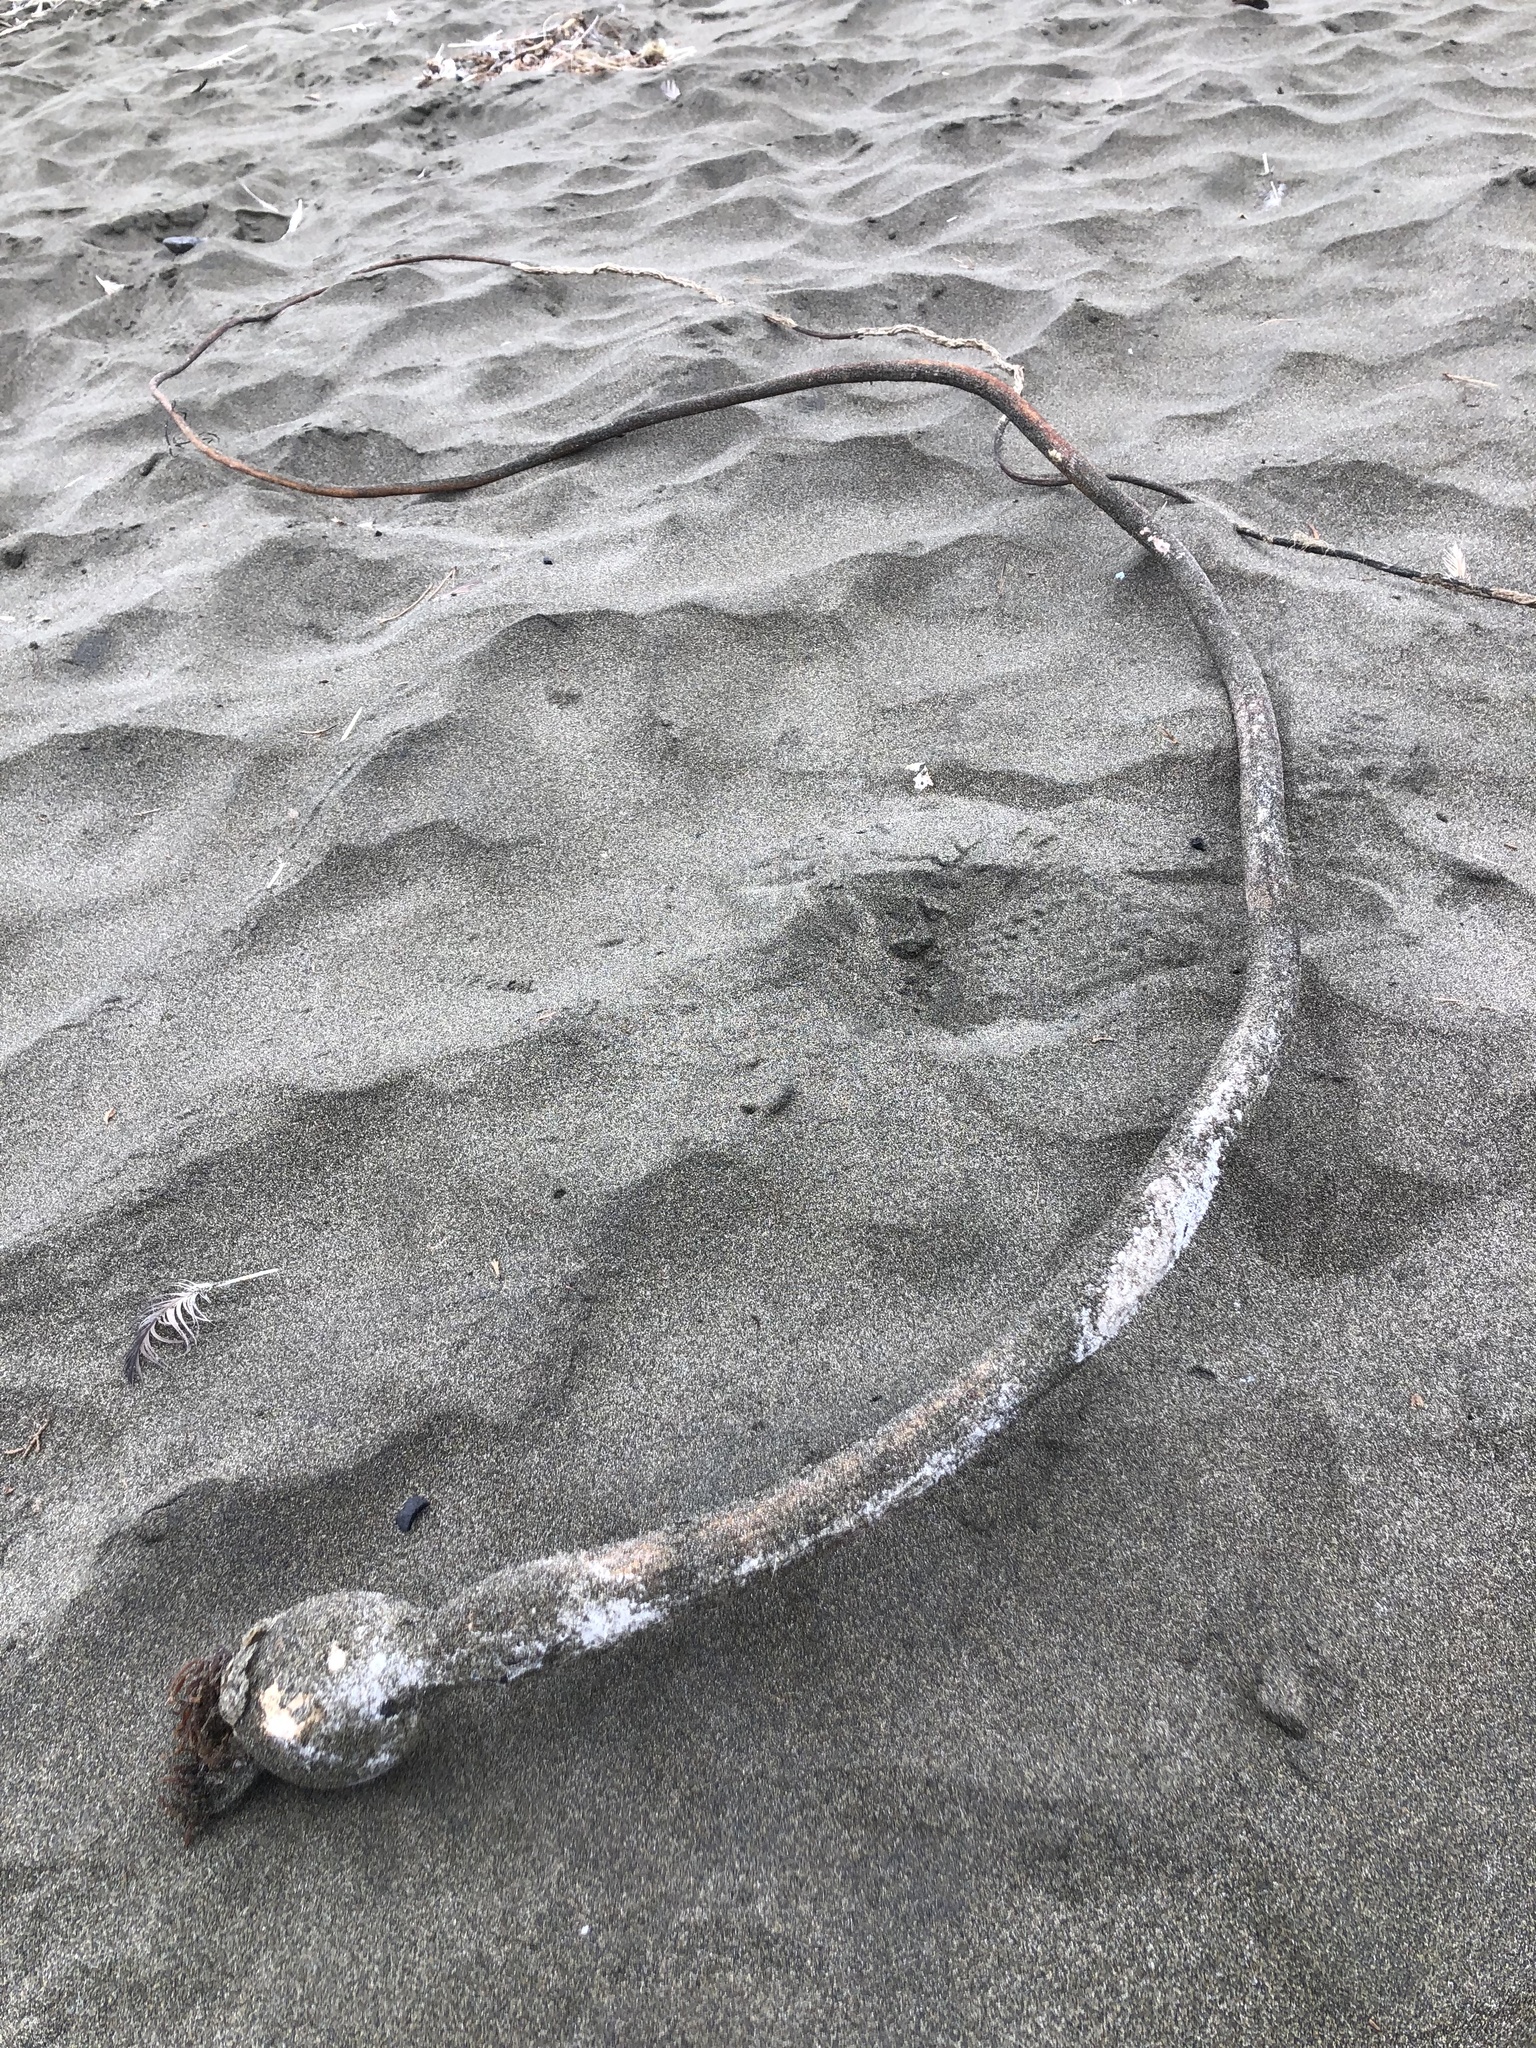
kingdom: Chromista
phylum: Ochrophyta
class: Phaeophyceae
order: Laminariales
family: Laminariaceae
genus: Nereocystis
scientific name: Nereocystis luetkeana
